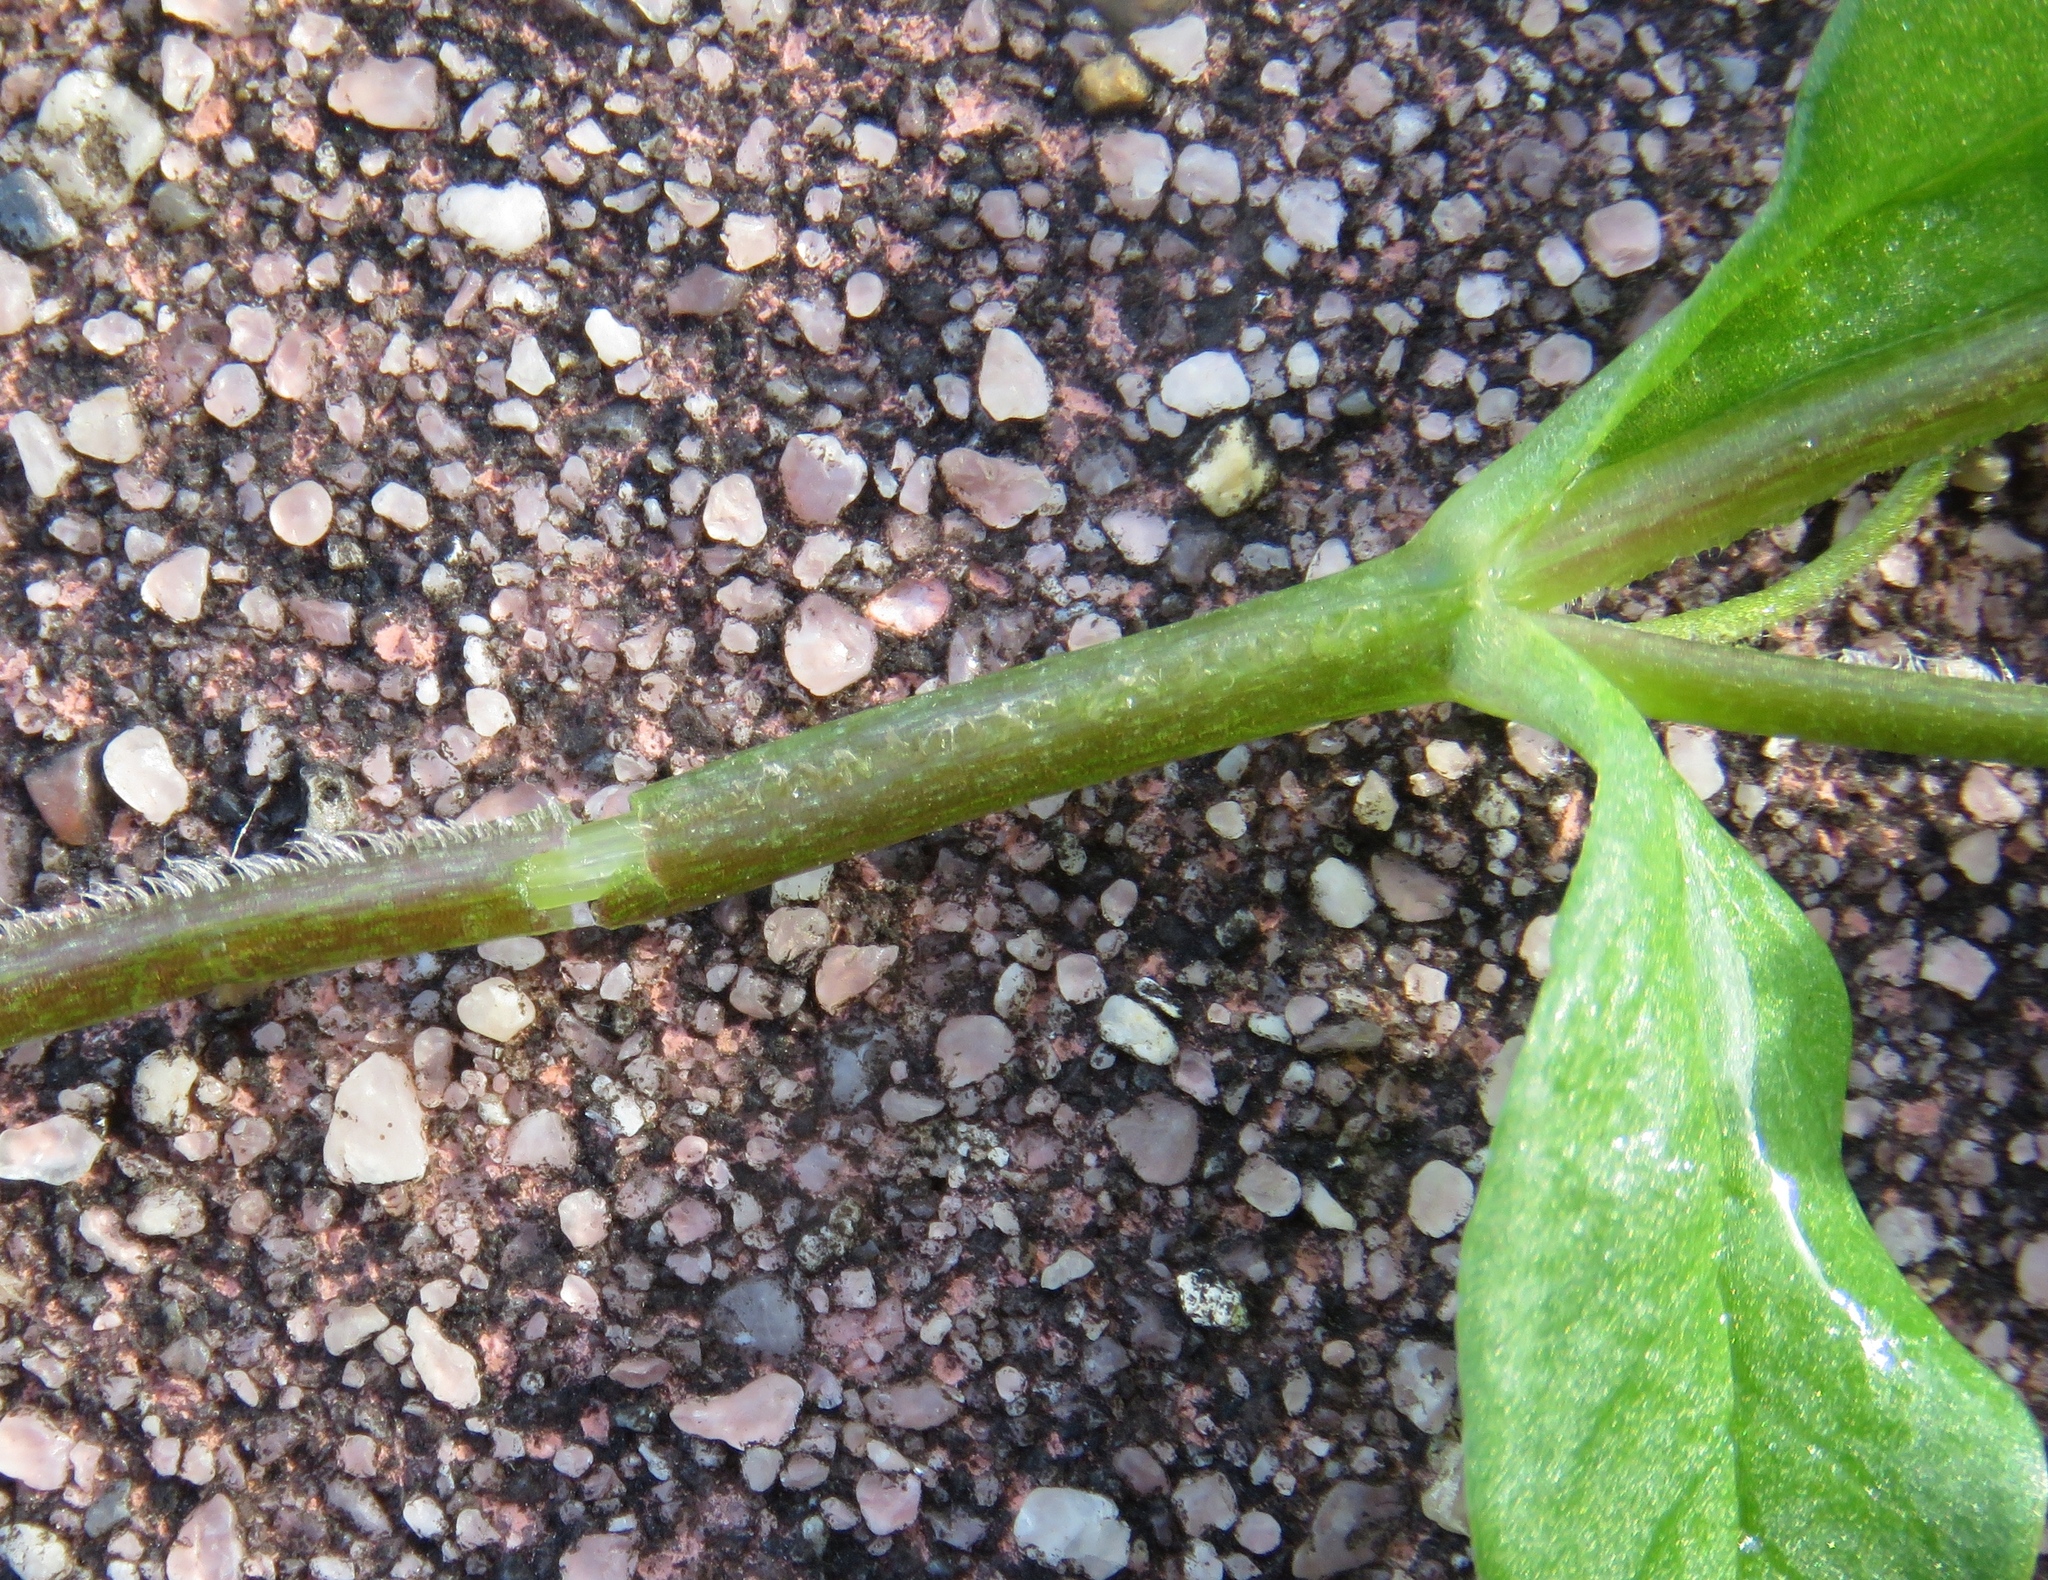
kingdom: Plantae
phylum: Tracheophyta
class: Magnoliopsida
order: Caryophyllales
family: Caryophyllaceae
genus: Stellaria
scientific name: Stellaria media
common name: Common chickweed
